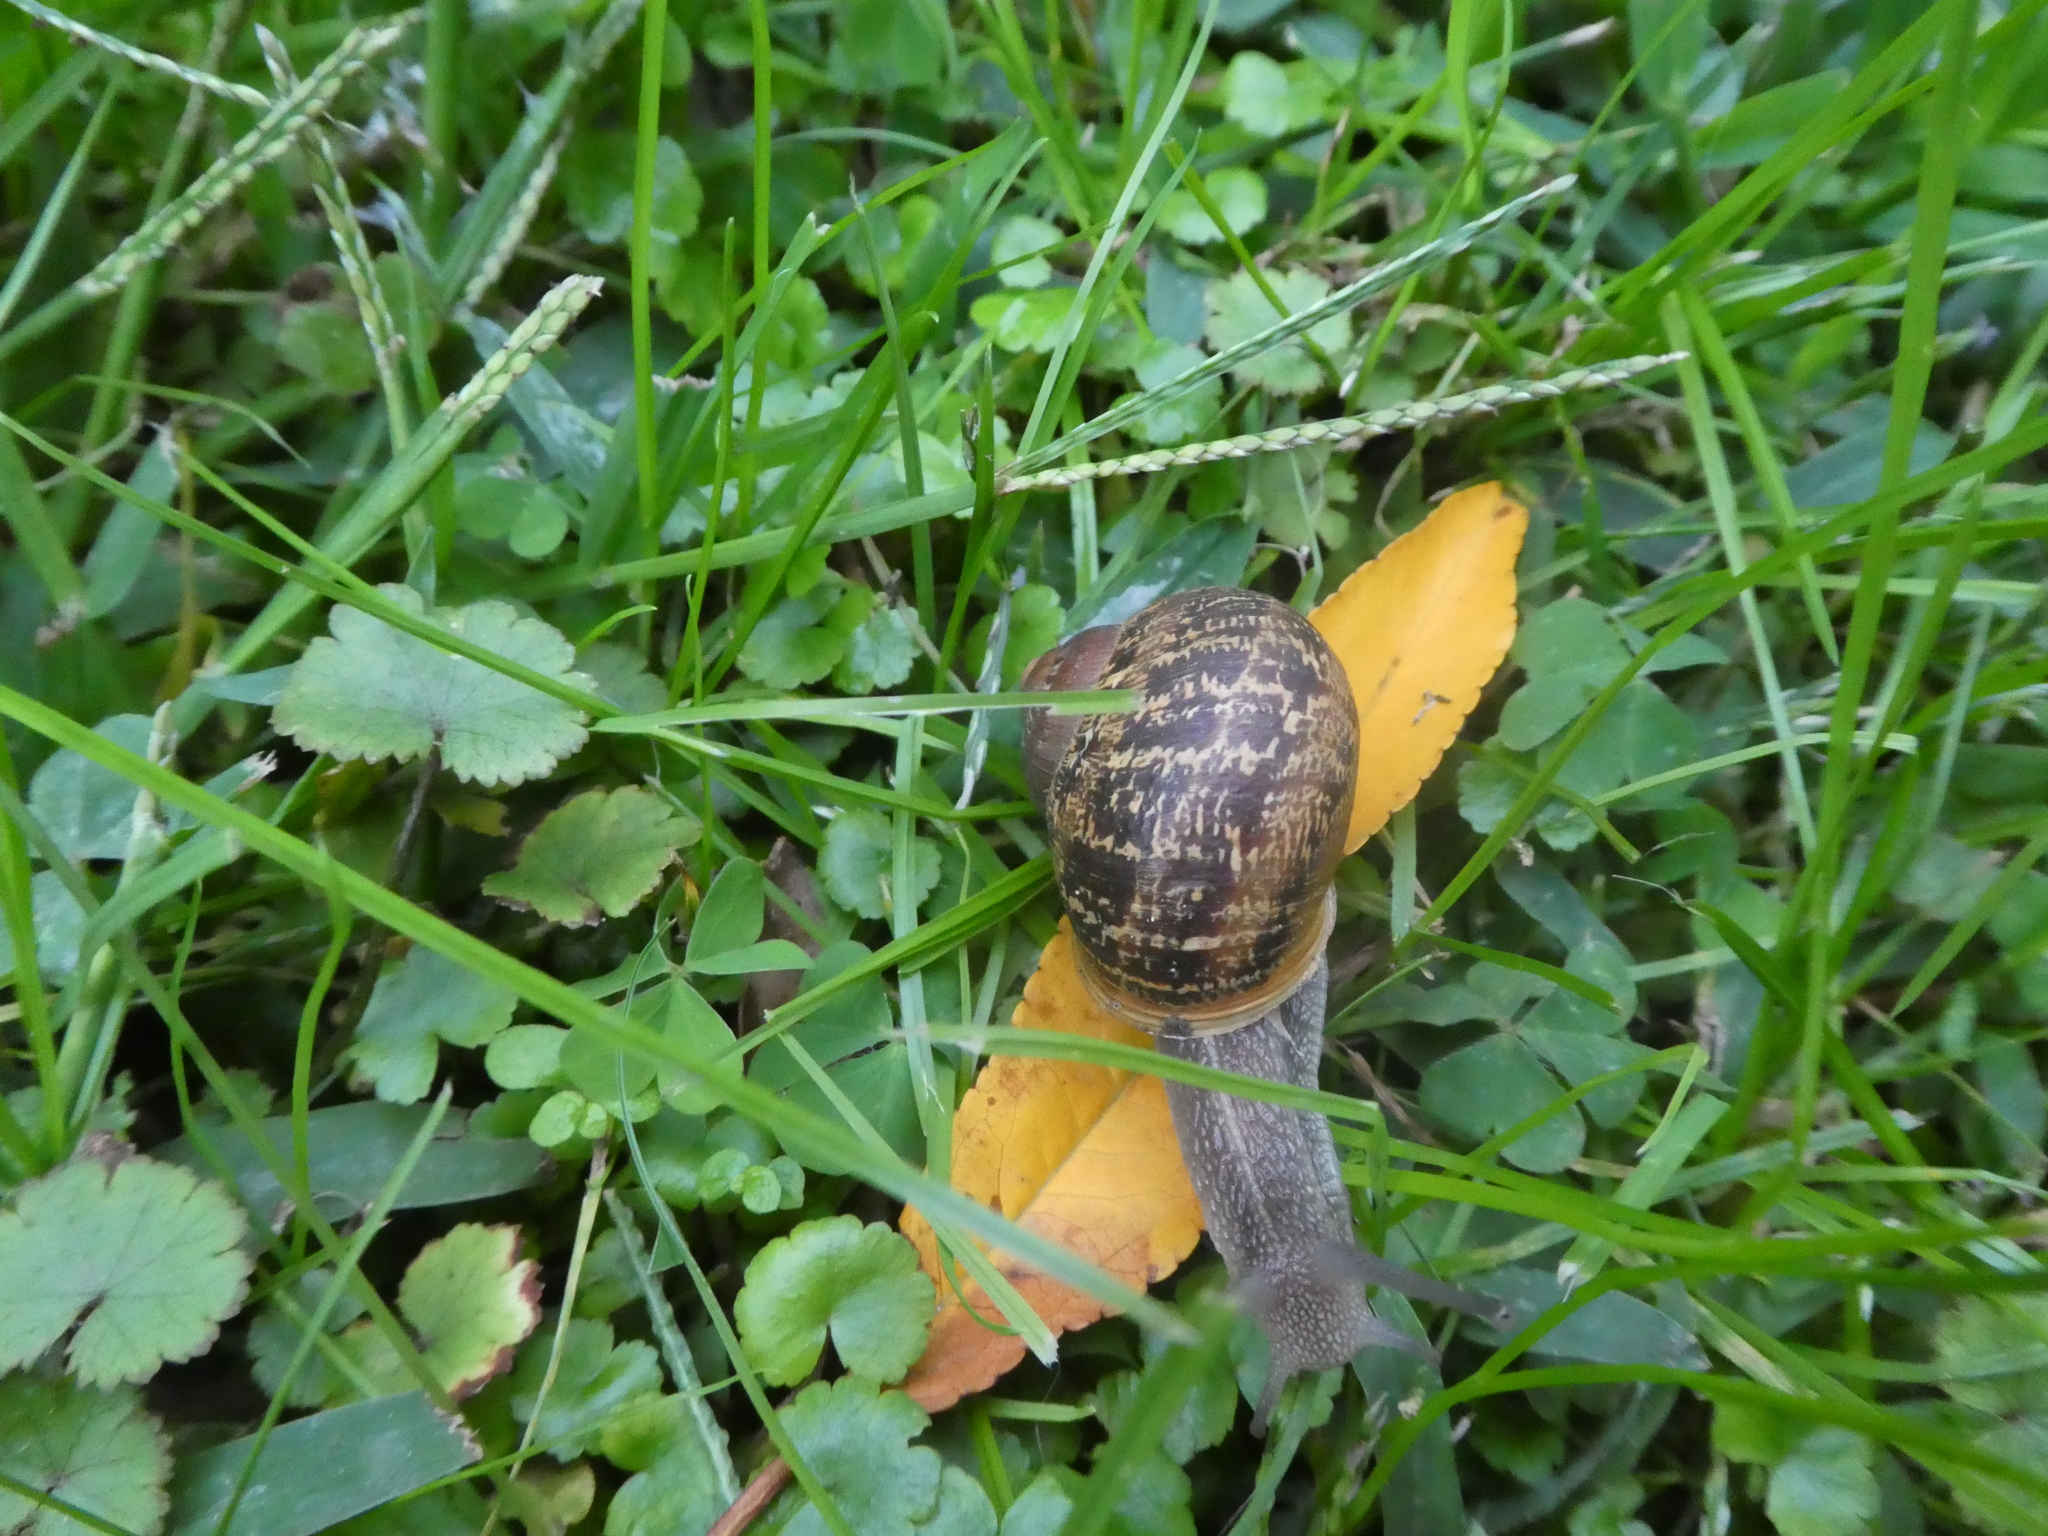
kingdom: Animalia
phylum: Mollusca
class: Gastropoda
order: Stylommatophora
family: Helicidae
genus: Cornu
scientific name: Cornu aspersum
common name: Brown garden snail
